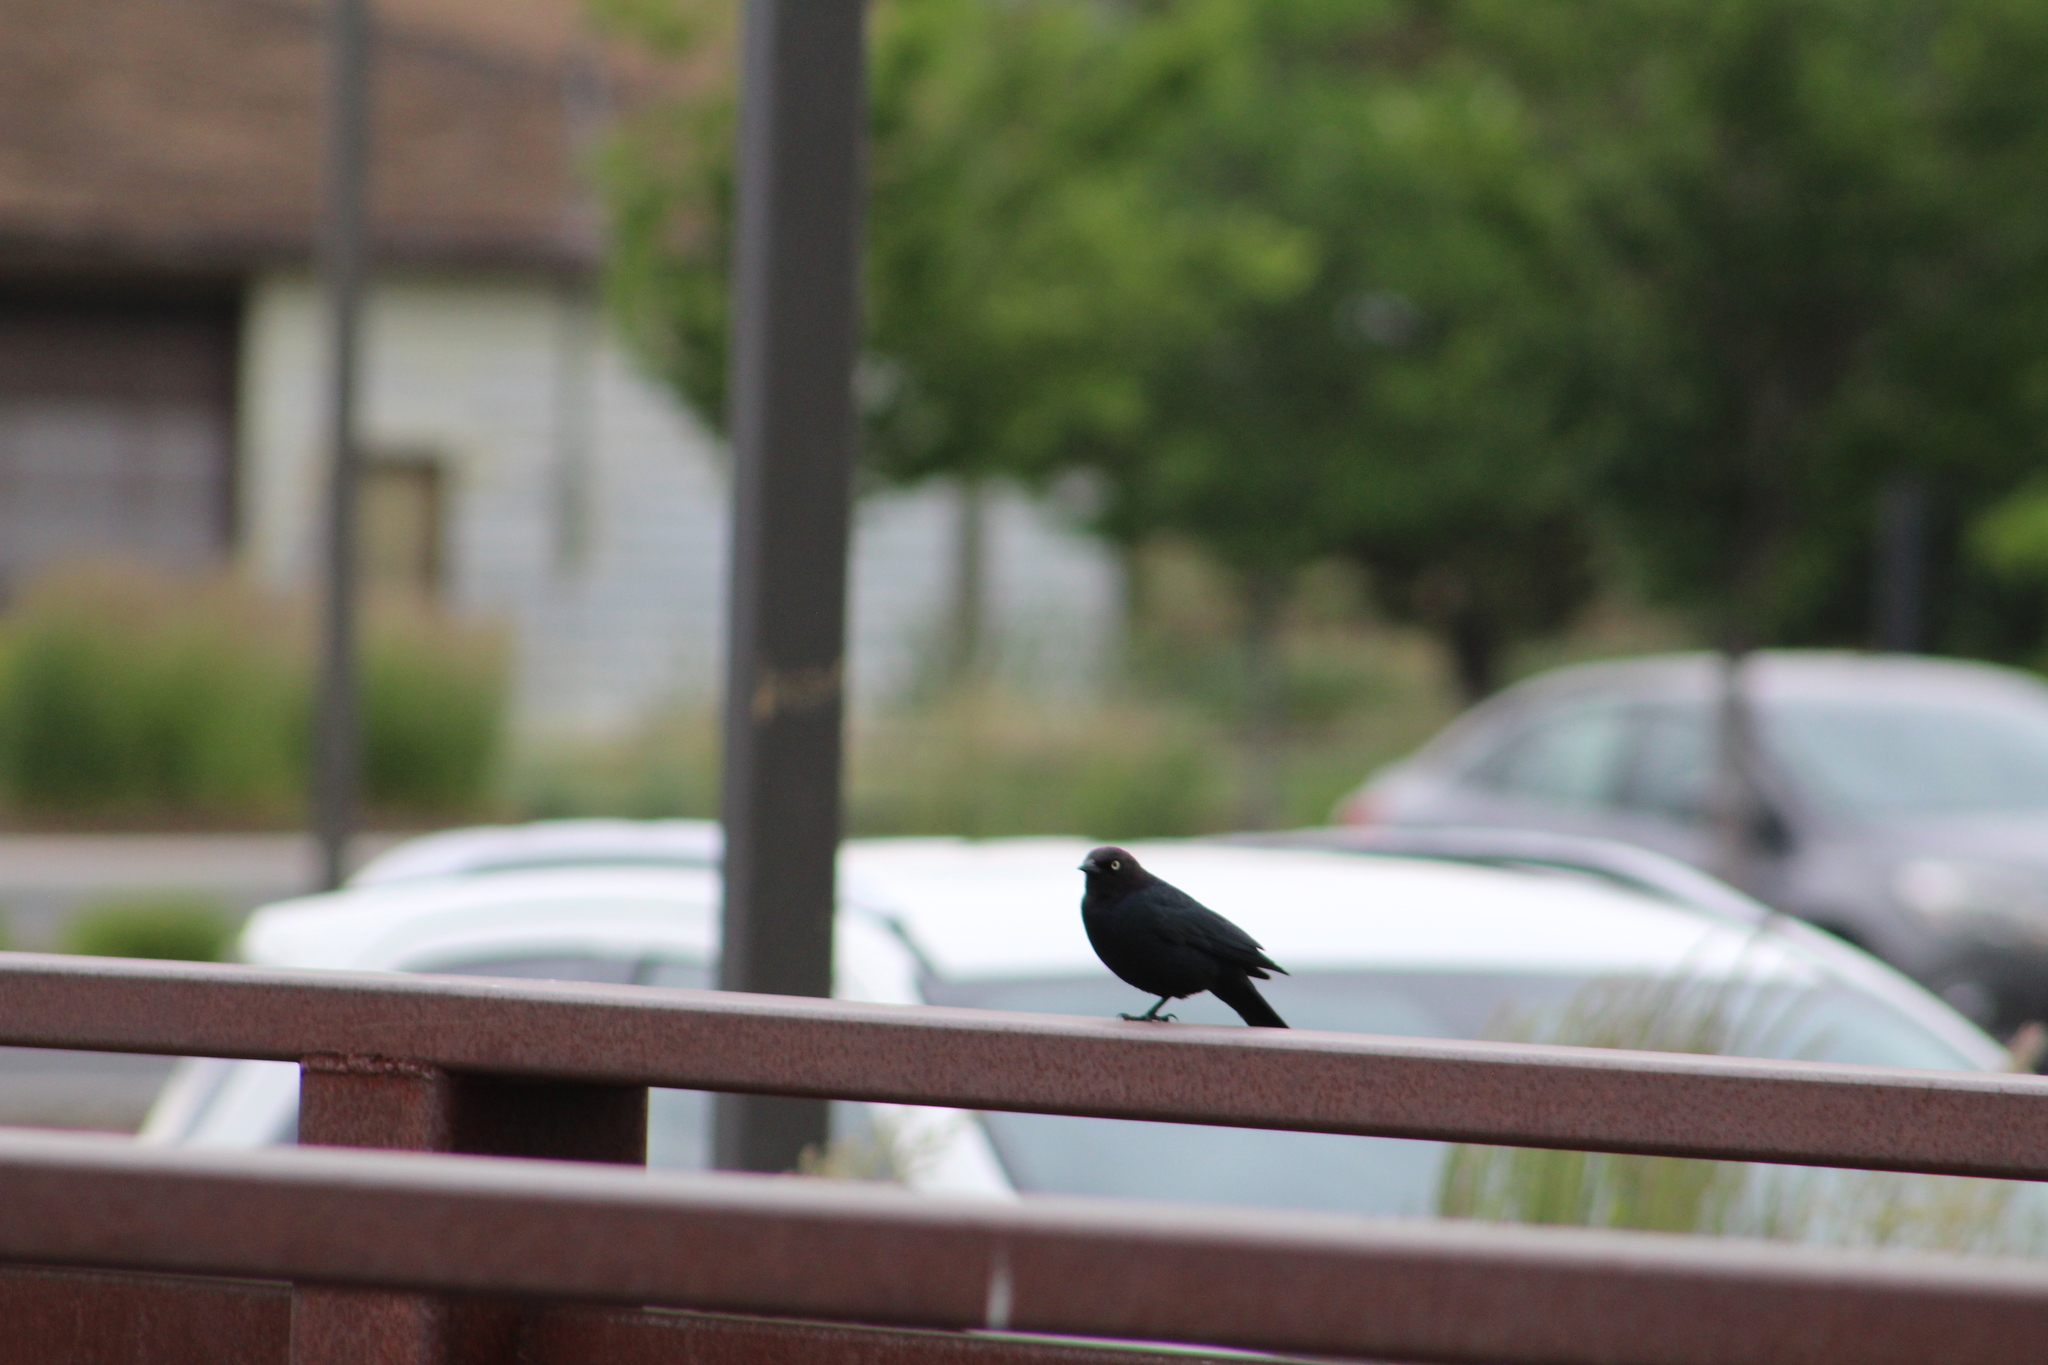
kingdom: Animalia
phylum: Chordata
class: Aves
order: Passeriformes
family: Icteridae
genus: Euphagus
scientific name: Euphagus cyanocephalus
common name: Brewer's blackbird
